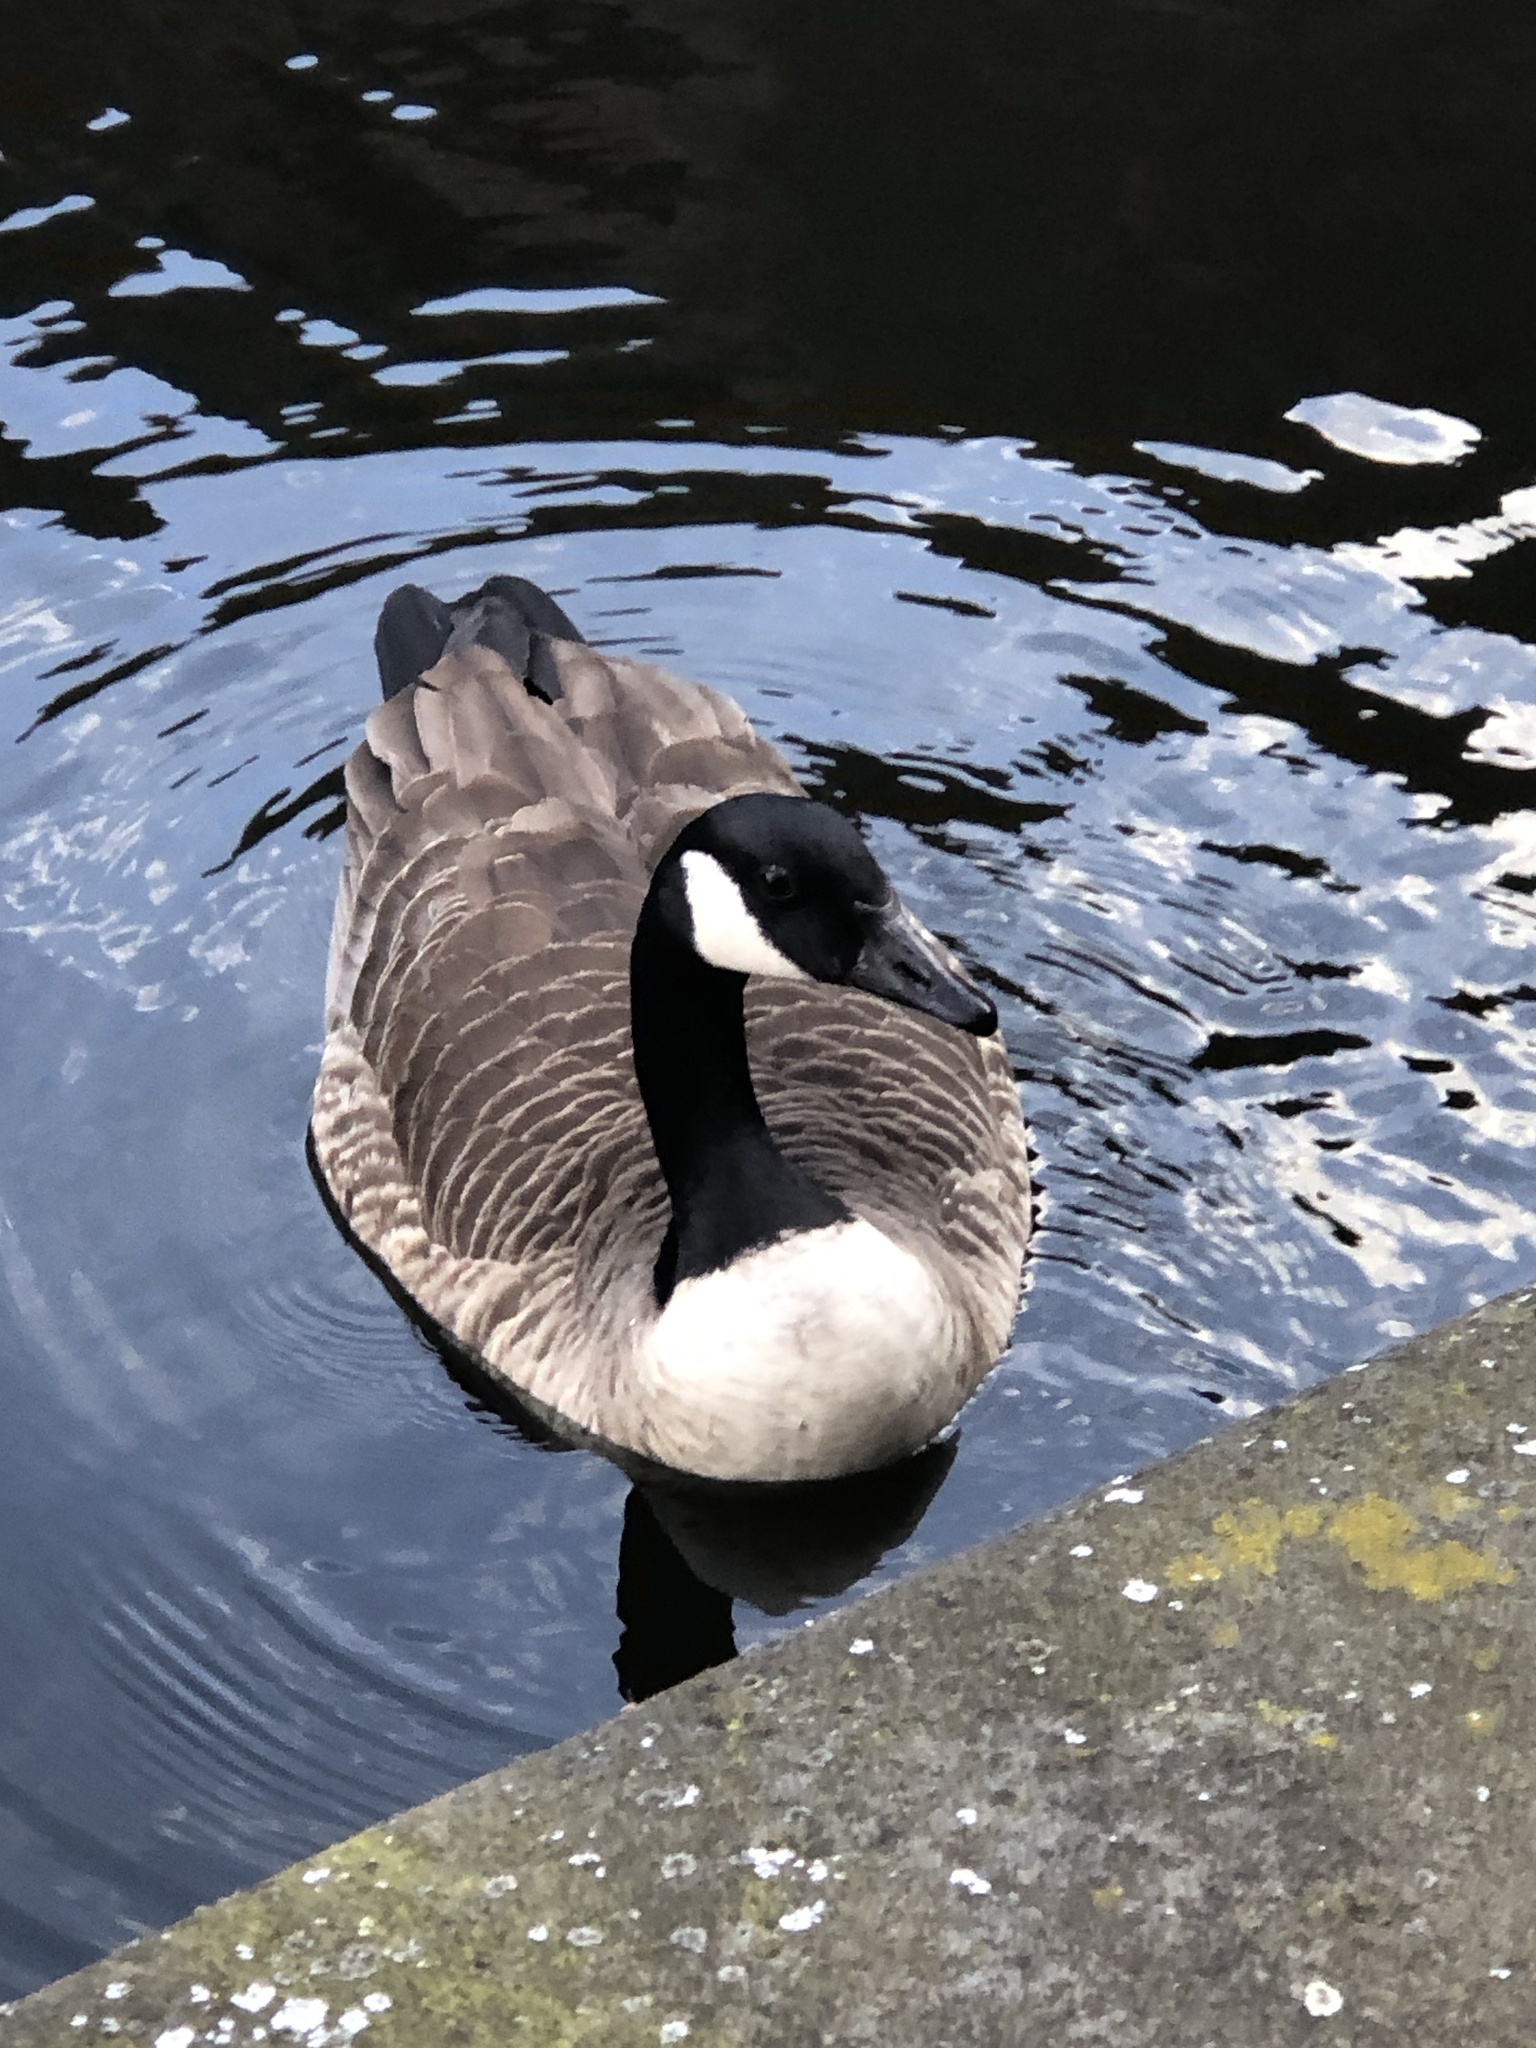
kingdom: Animalia
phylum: Chordata
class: Aves
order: Anseriformes
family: Anatidae
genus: Branta
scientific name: Branta canadensis
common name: Canada goose
